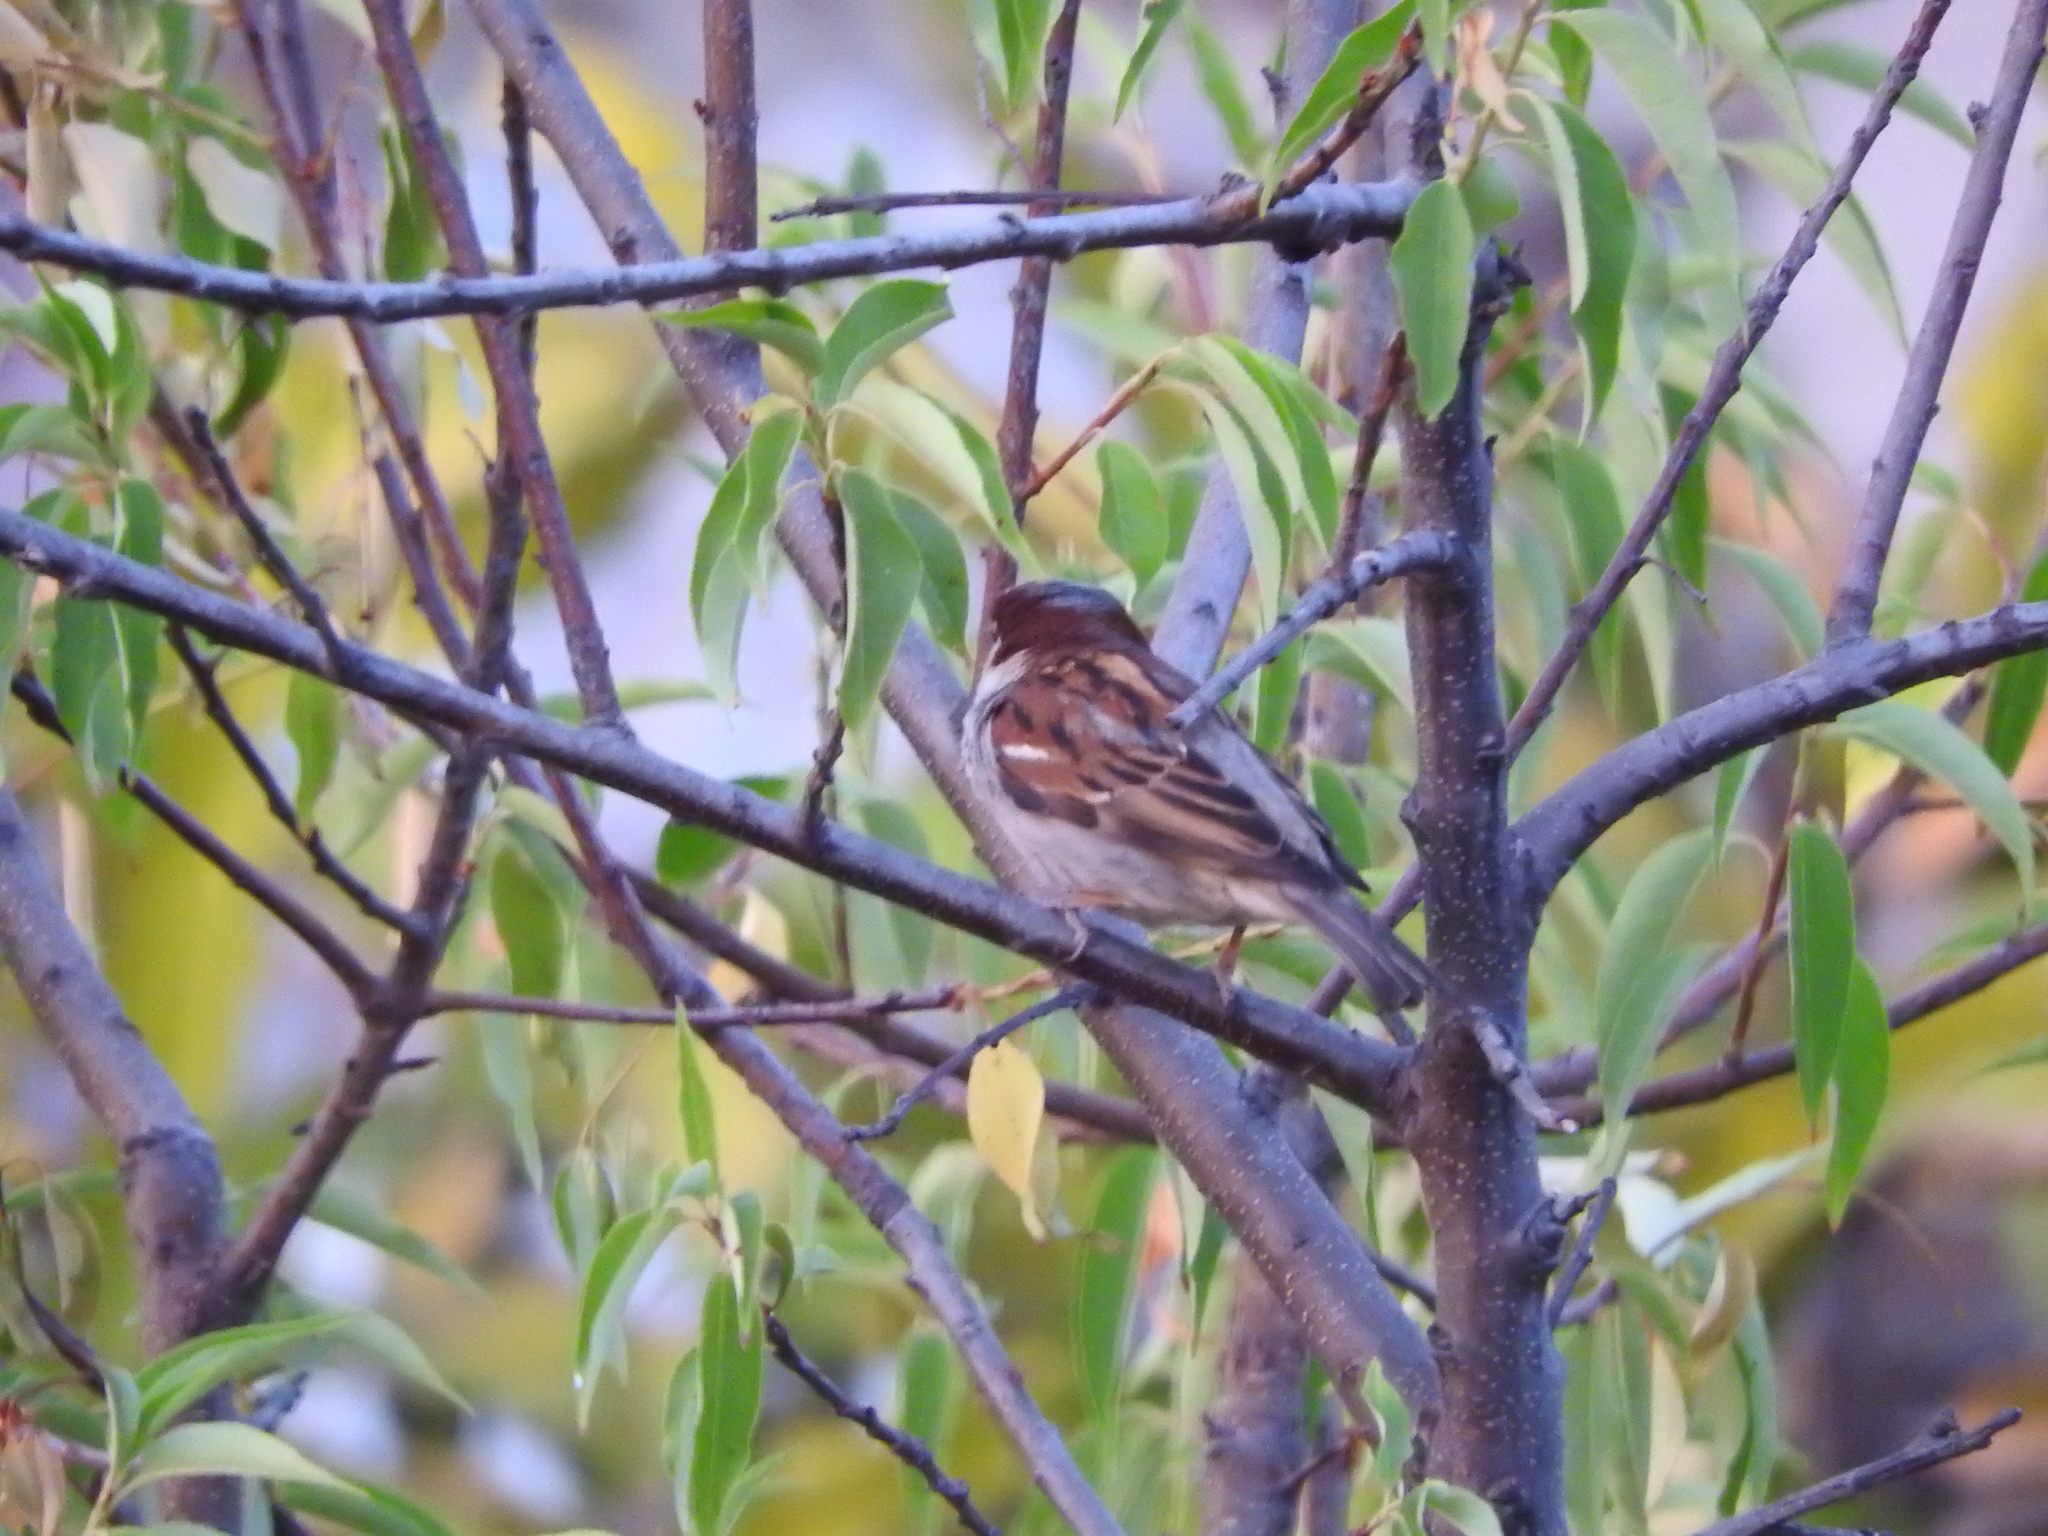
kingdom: Animalia
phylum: Chordata
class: Aves
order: Passeriformes
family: Passeridae
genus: Passer
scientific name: Passer domesticus
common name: House sparrow
